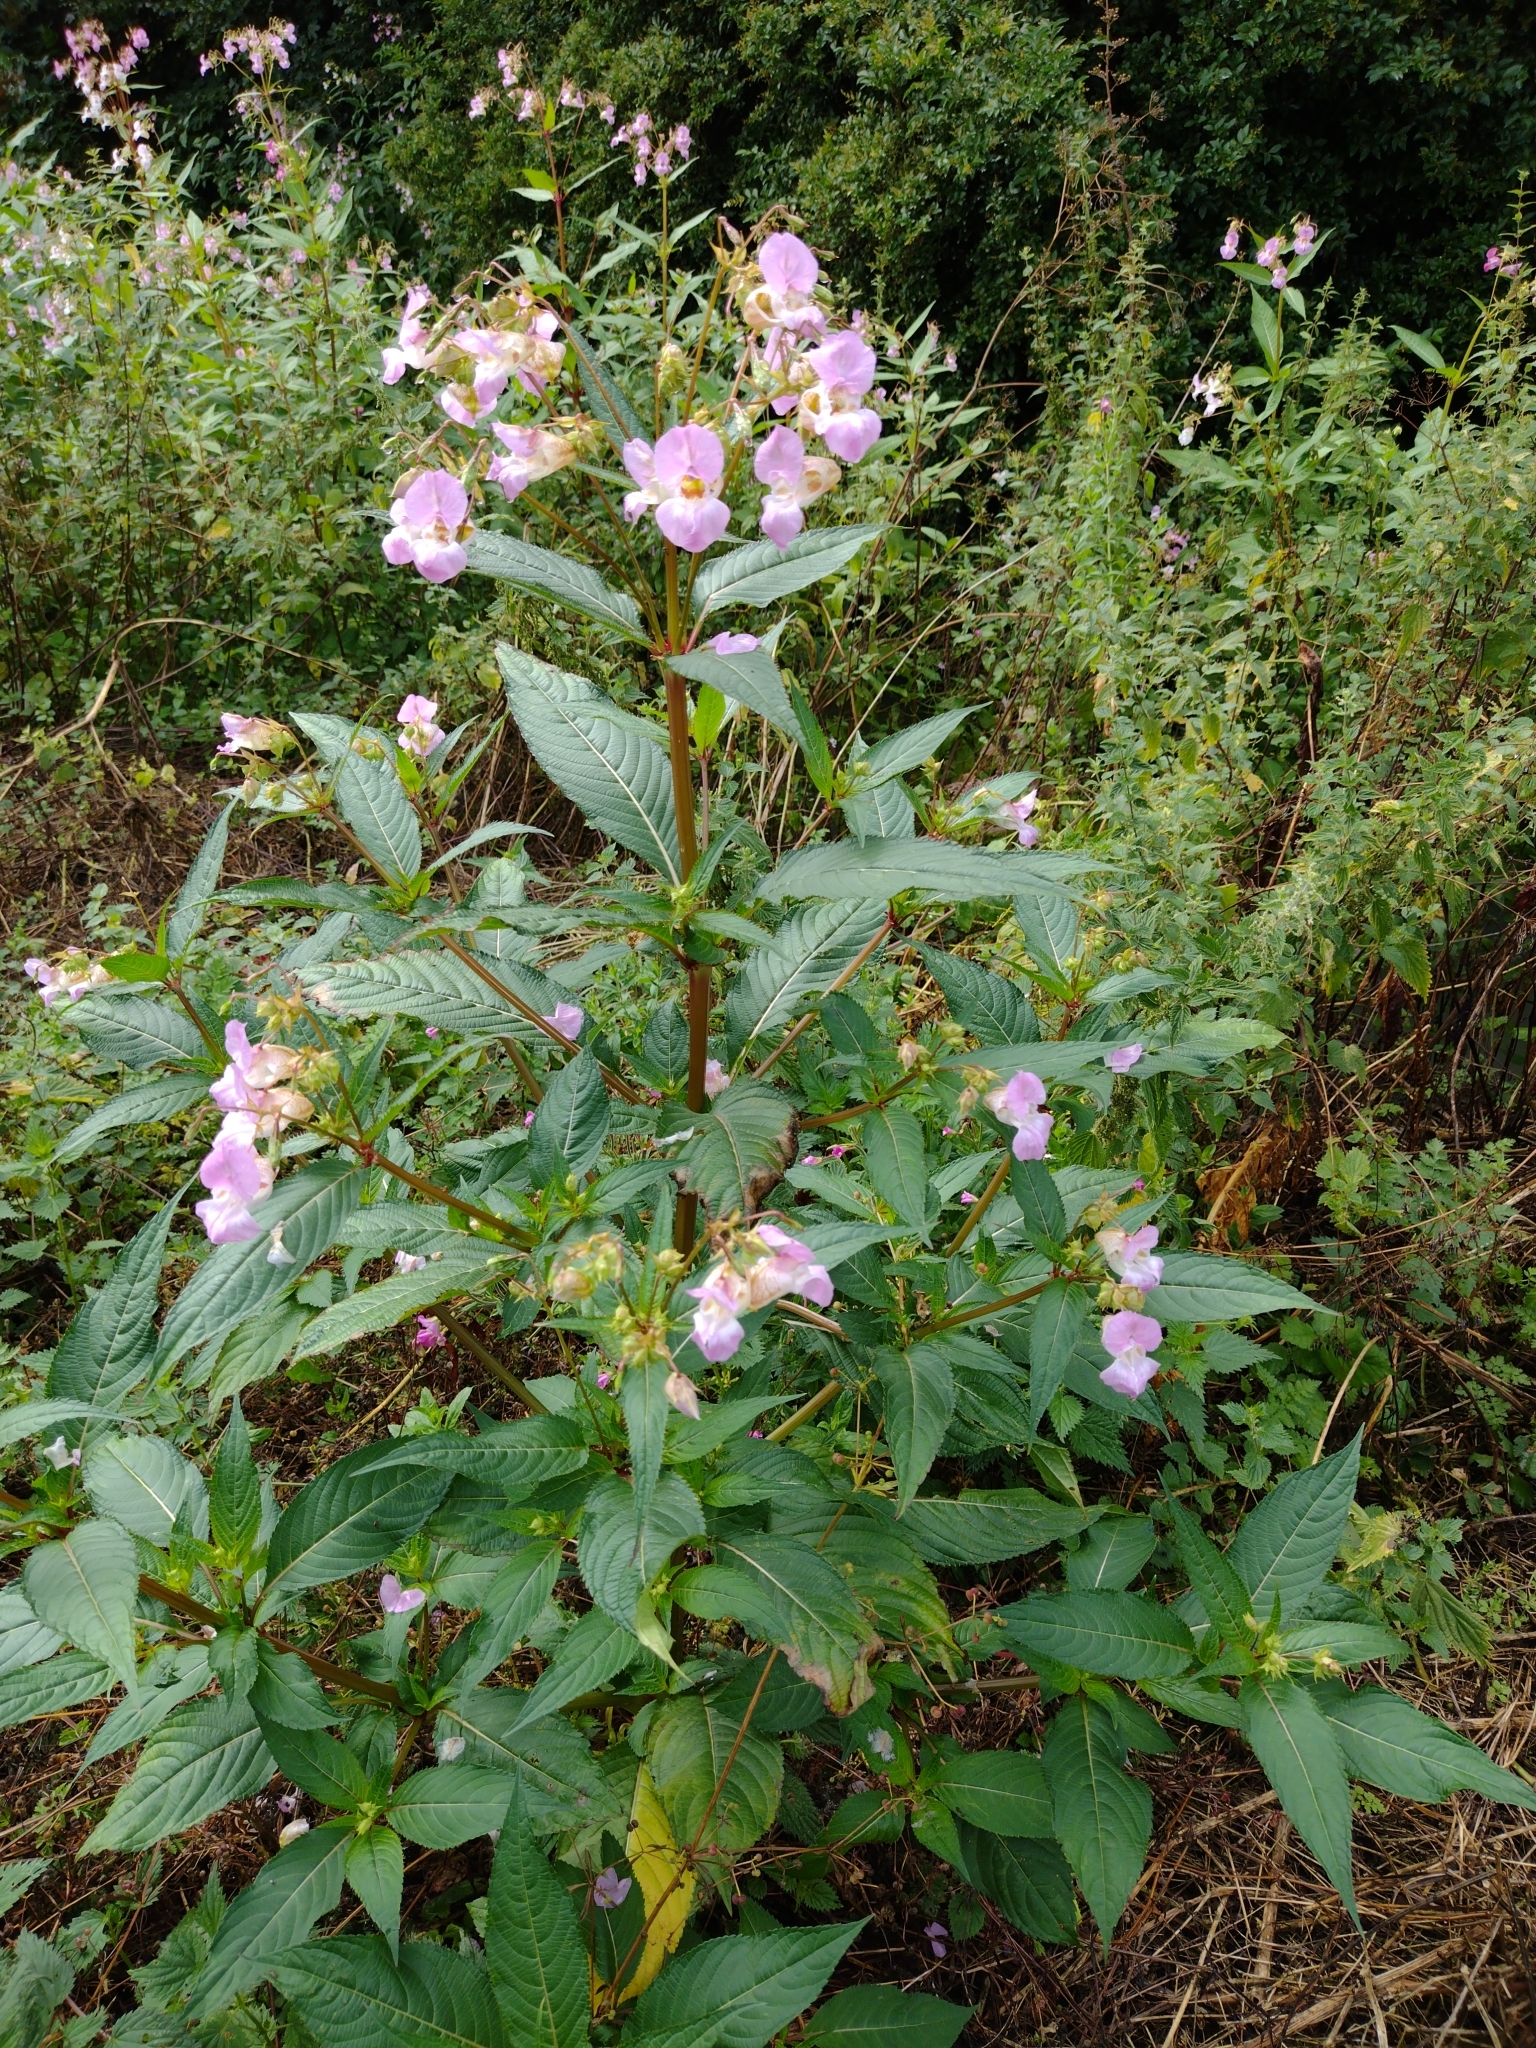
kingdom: Plantae
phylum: Tracheophyta
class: Magnoliopsida
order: Ericales
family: Balsaminaceae
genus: Impatiens
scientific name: Impatiens glandulifera
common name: Himalayan balsam
